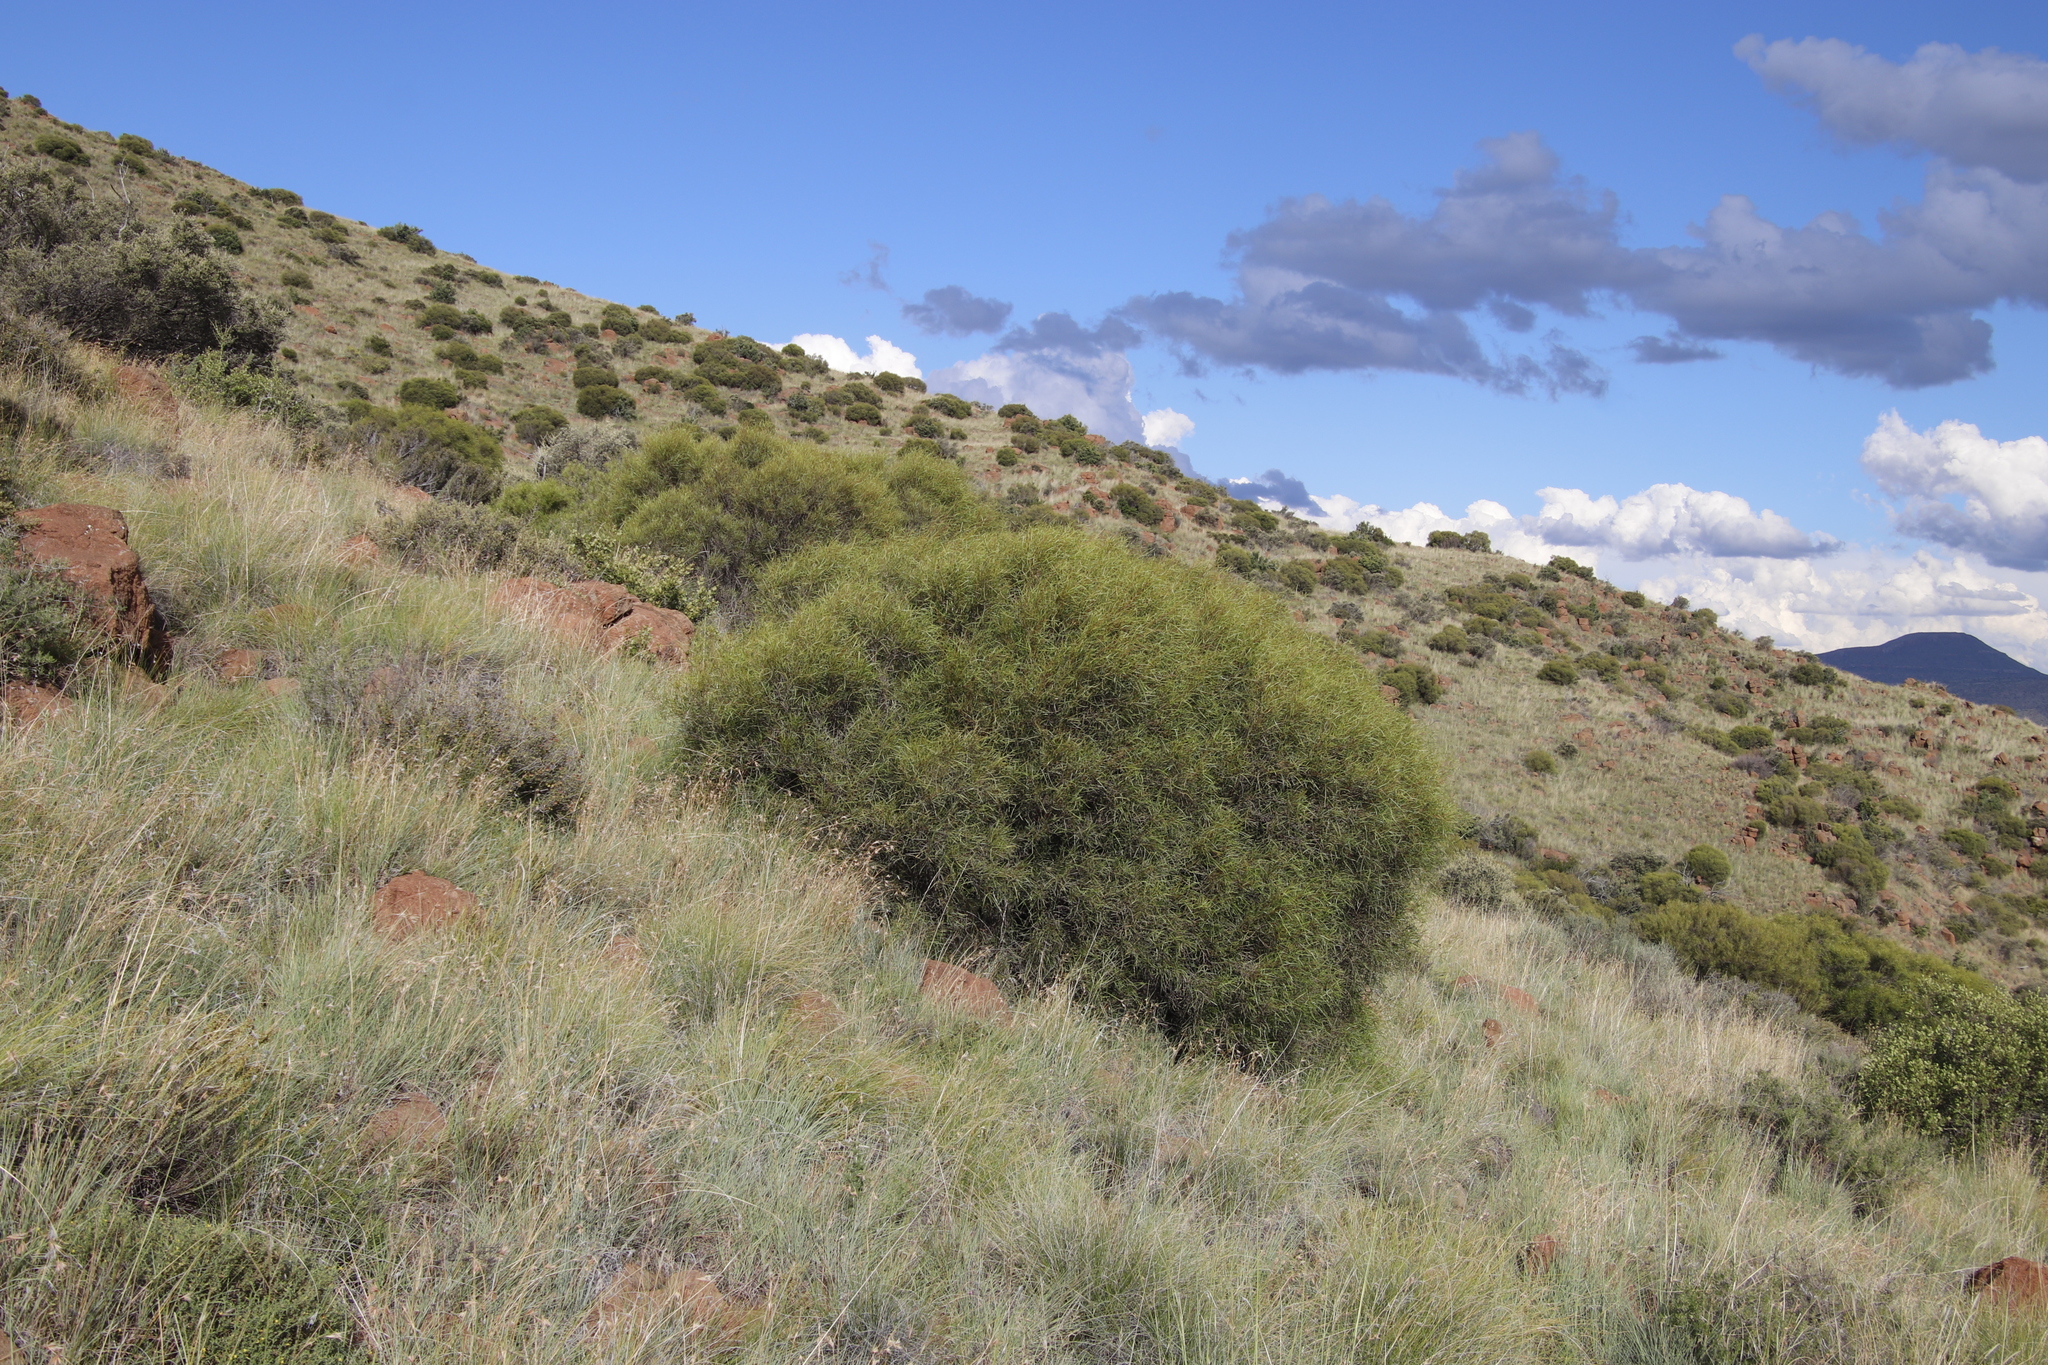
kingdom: Plantae
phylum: Tracheophyta
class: Magnoliopsida
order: Sapindales
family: Anacardiaceae
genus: Searsia
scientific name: Searsia erosa
